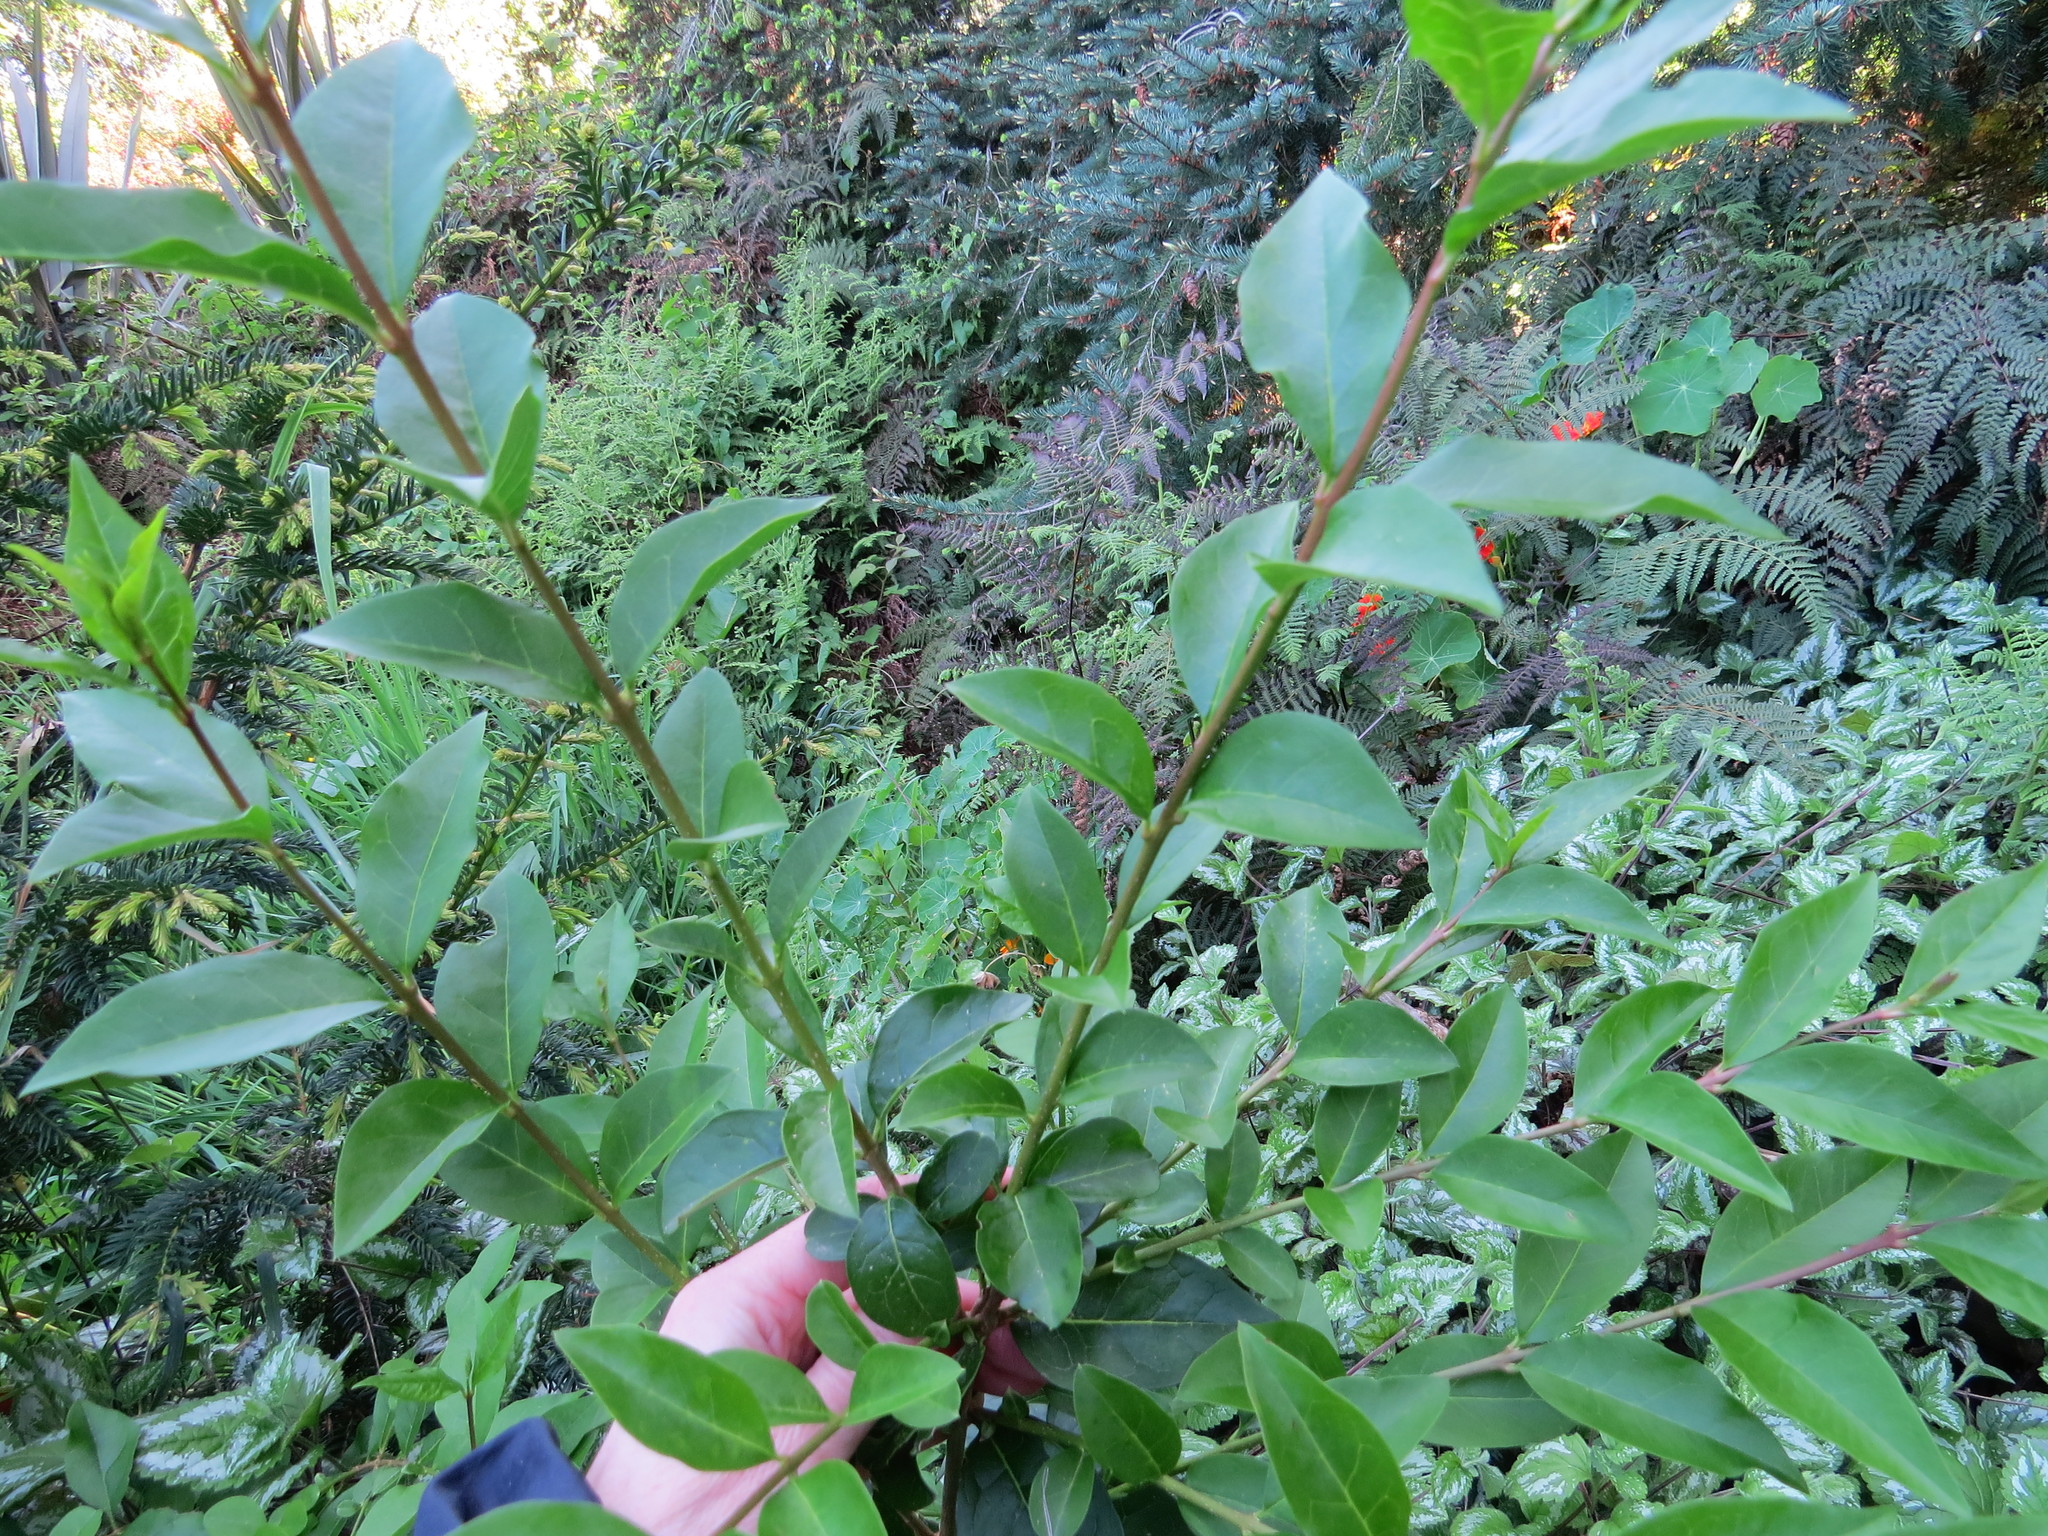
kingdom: Plantae
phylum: Tracheophyta
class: Magnoliopsida
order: Lamiales
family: Oleaceae
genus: Ligustrum
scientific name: Ligustrum lucidum
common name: Glossy privet
